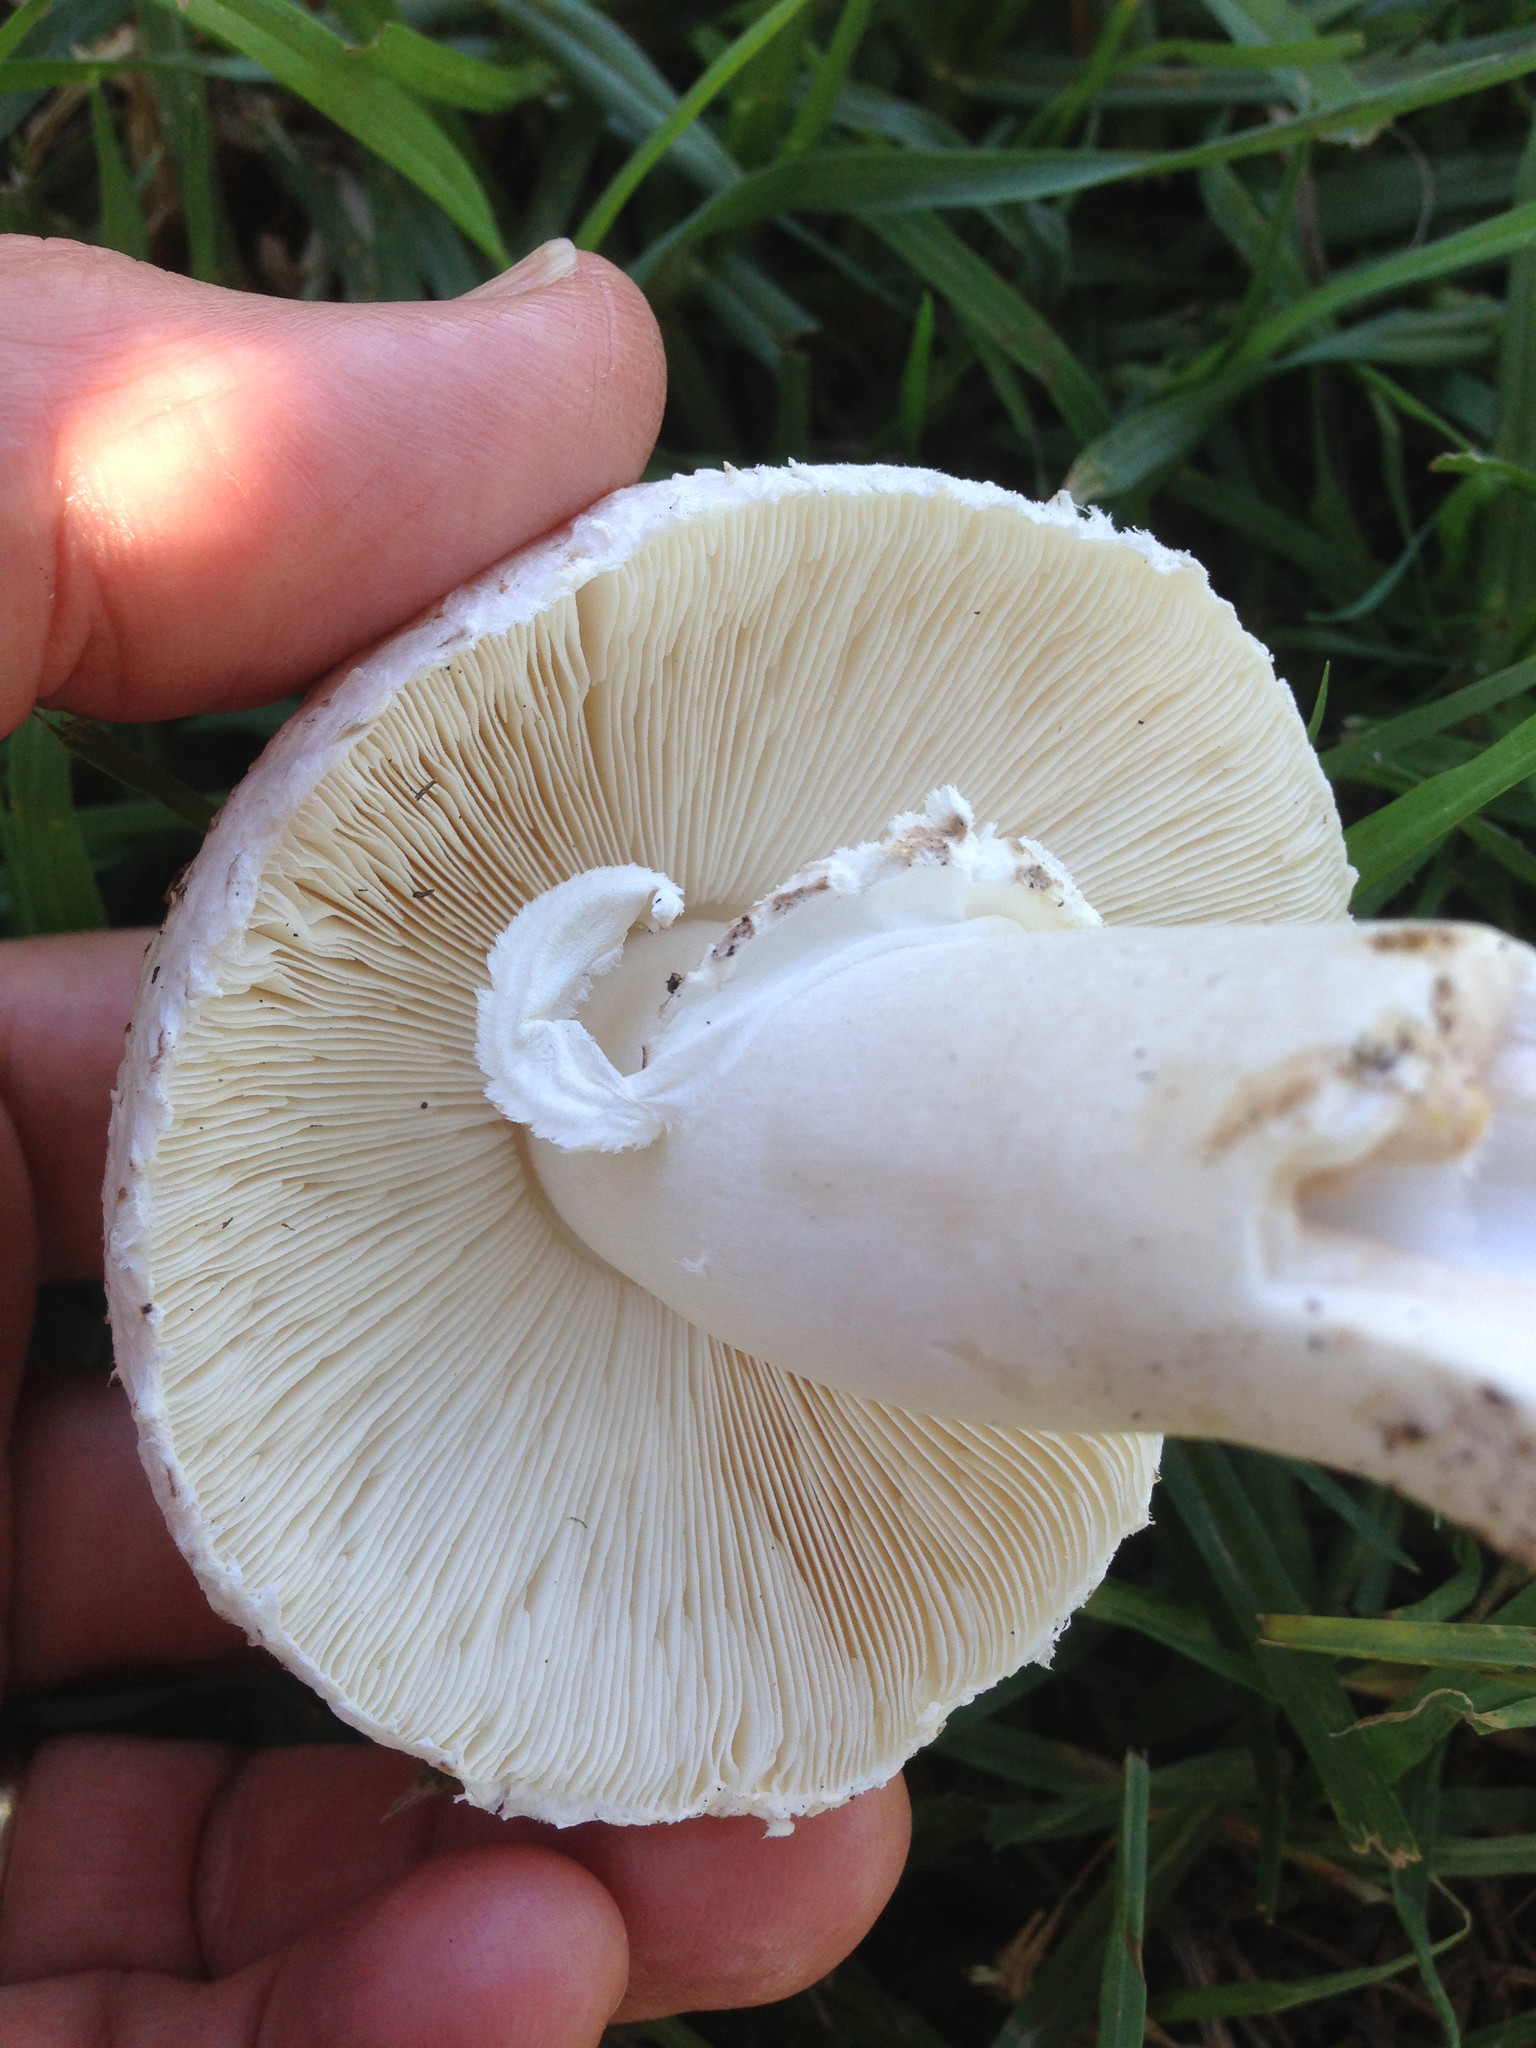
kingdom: Fungi
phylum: Basidiomycota
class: Agaricomycetes
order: Agaricales
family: Agaricaceae
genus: Leucoagaricus
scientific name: Leucoagaricus barssii
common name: Smoky dapperling
